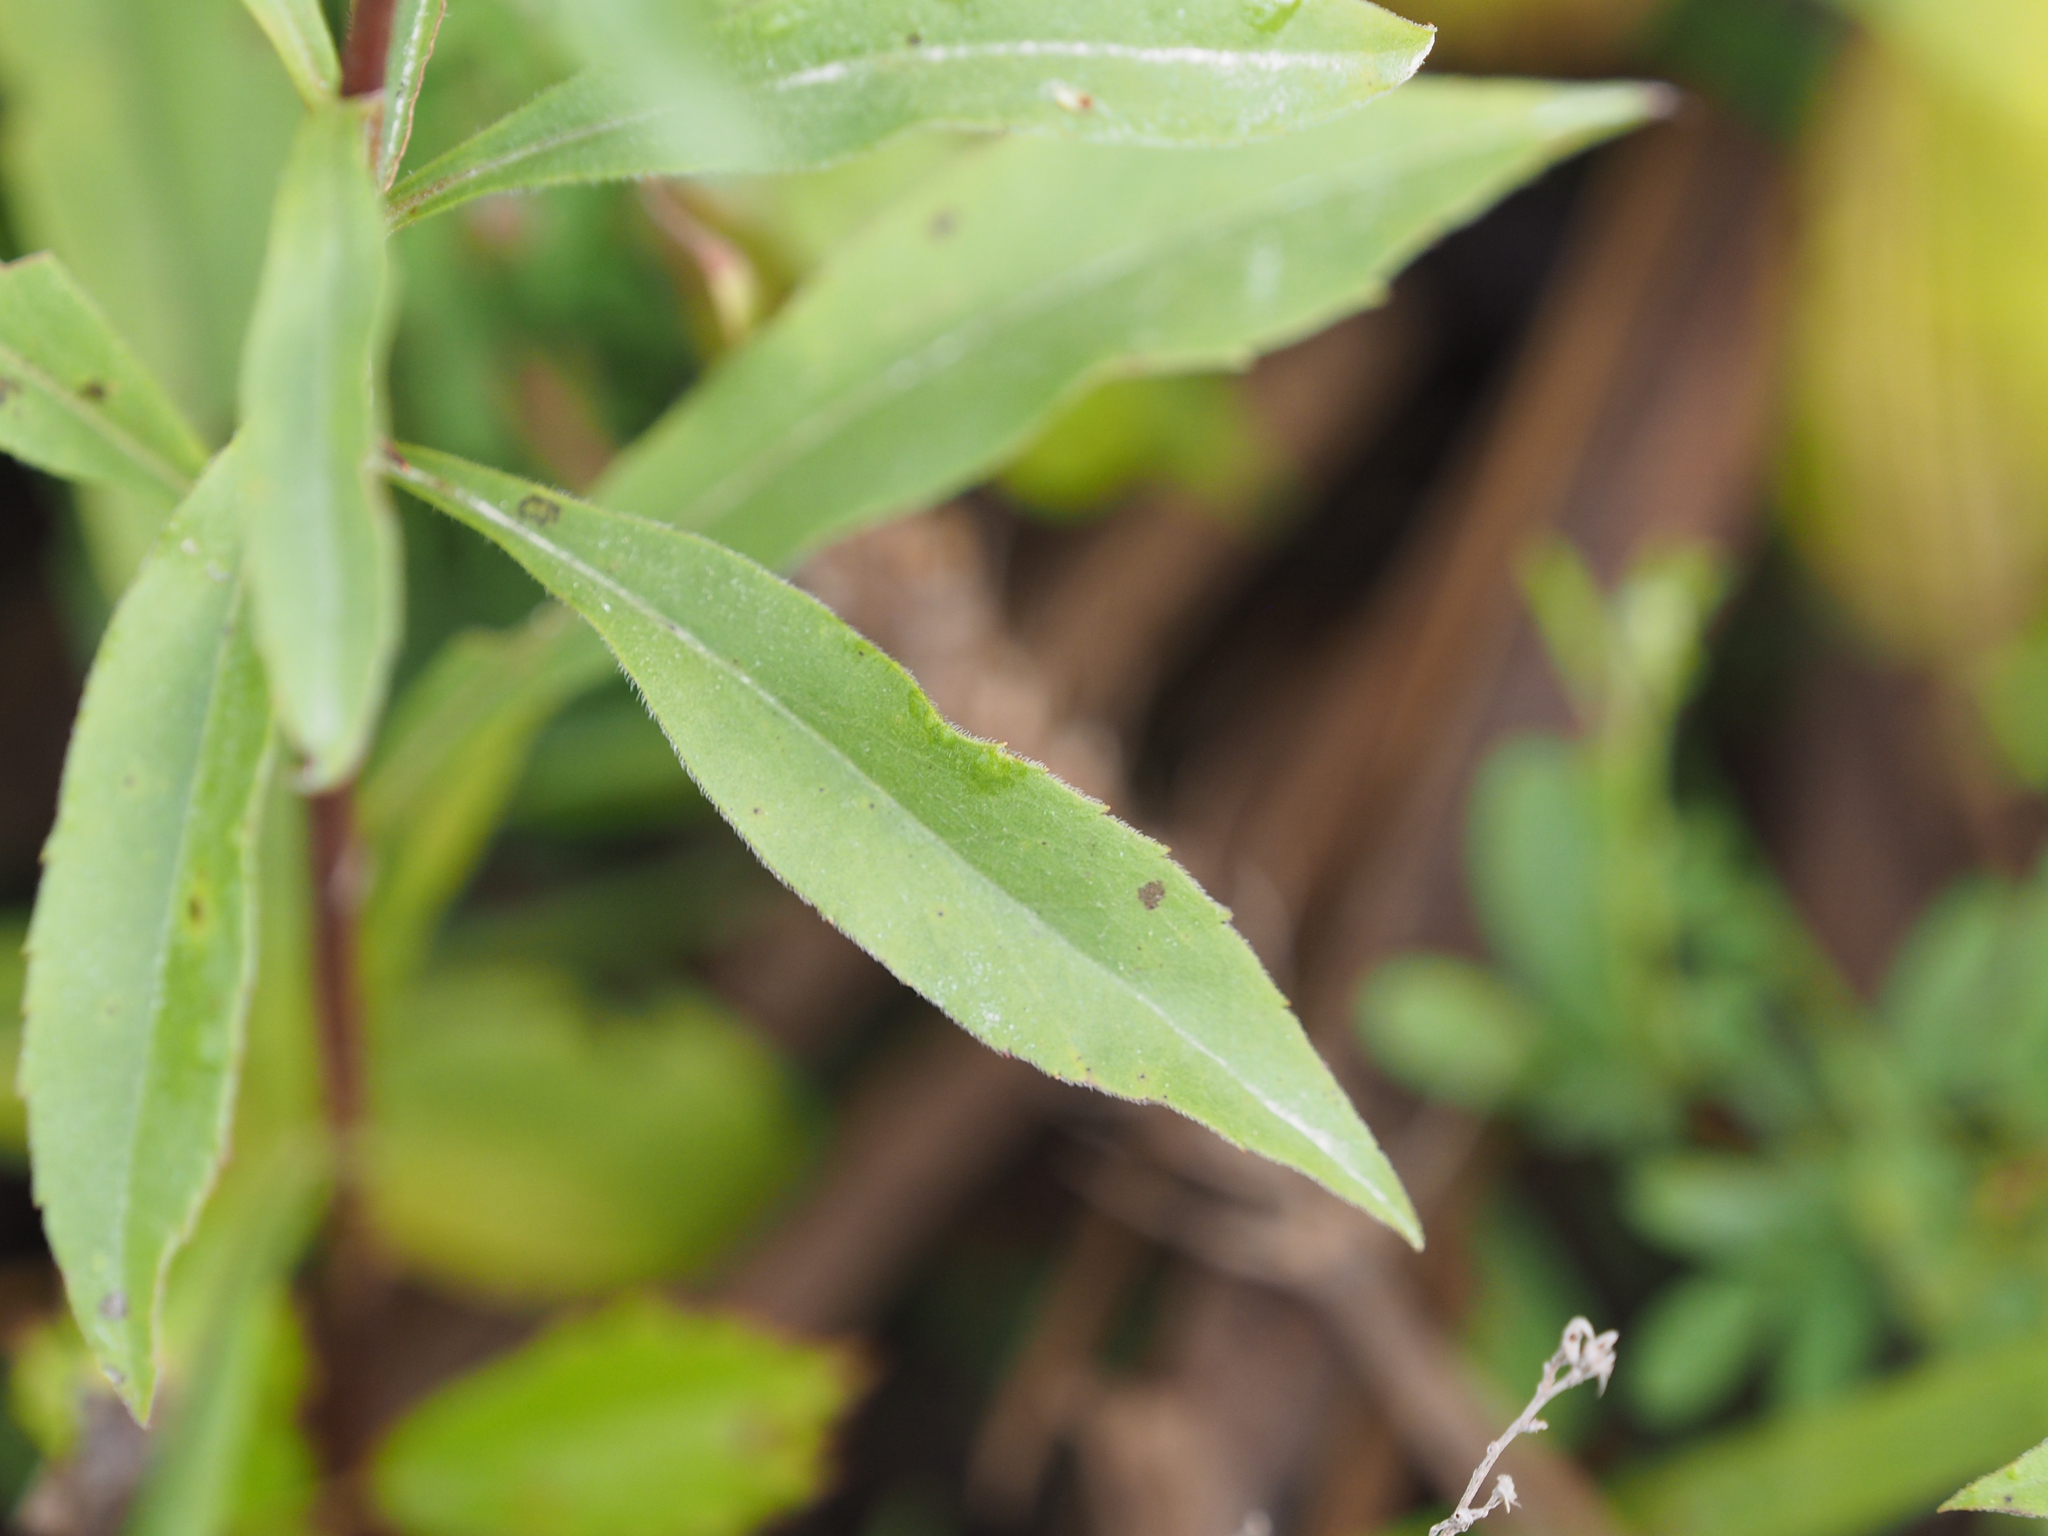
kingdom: Plantae
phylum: Tracheophyta
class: Magnoliopsida
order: Asterales
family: Asteraceae
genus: Solidago
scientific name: Solidago juncea
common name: Early goldenrod
